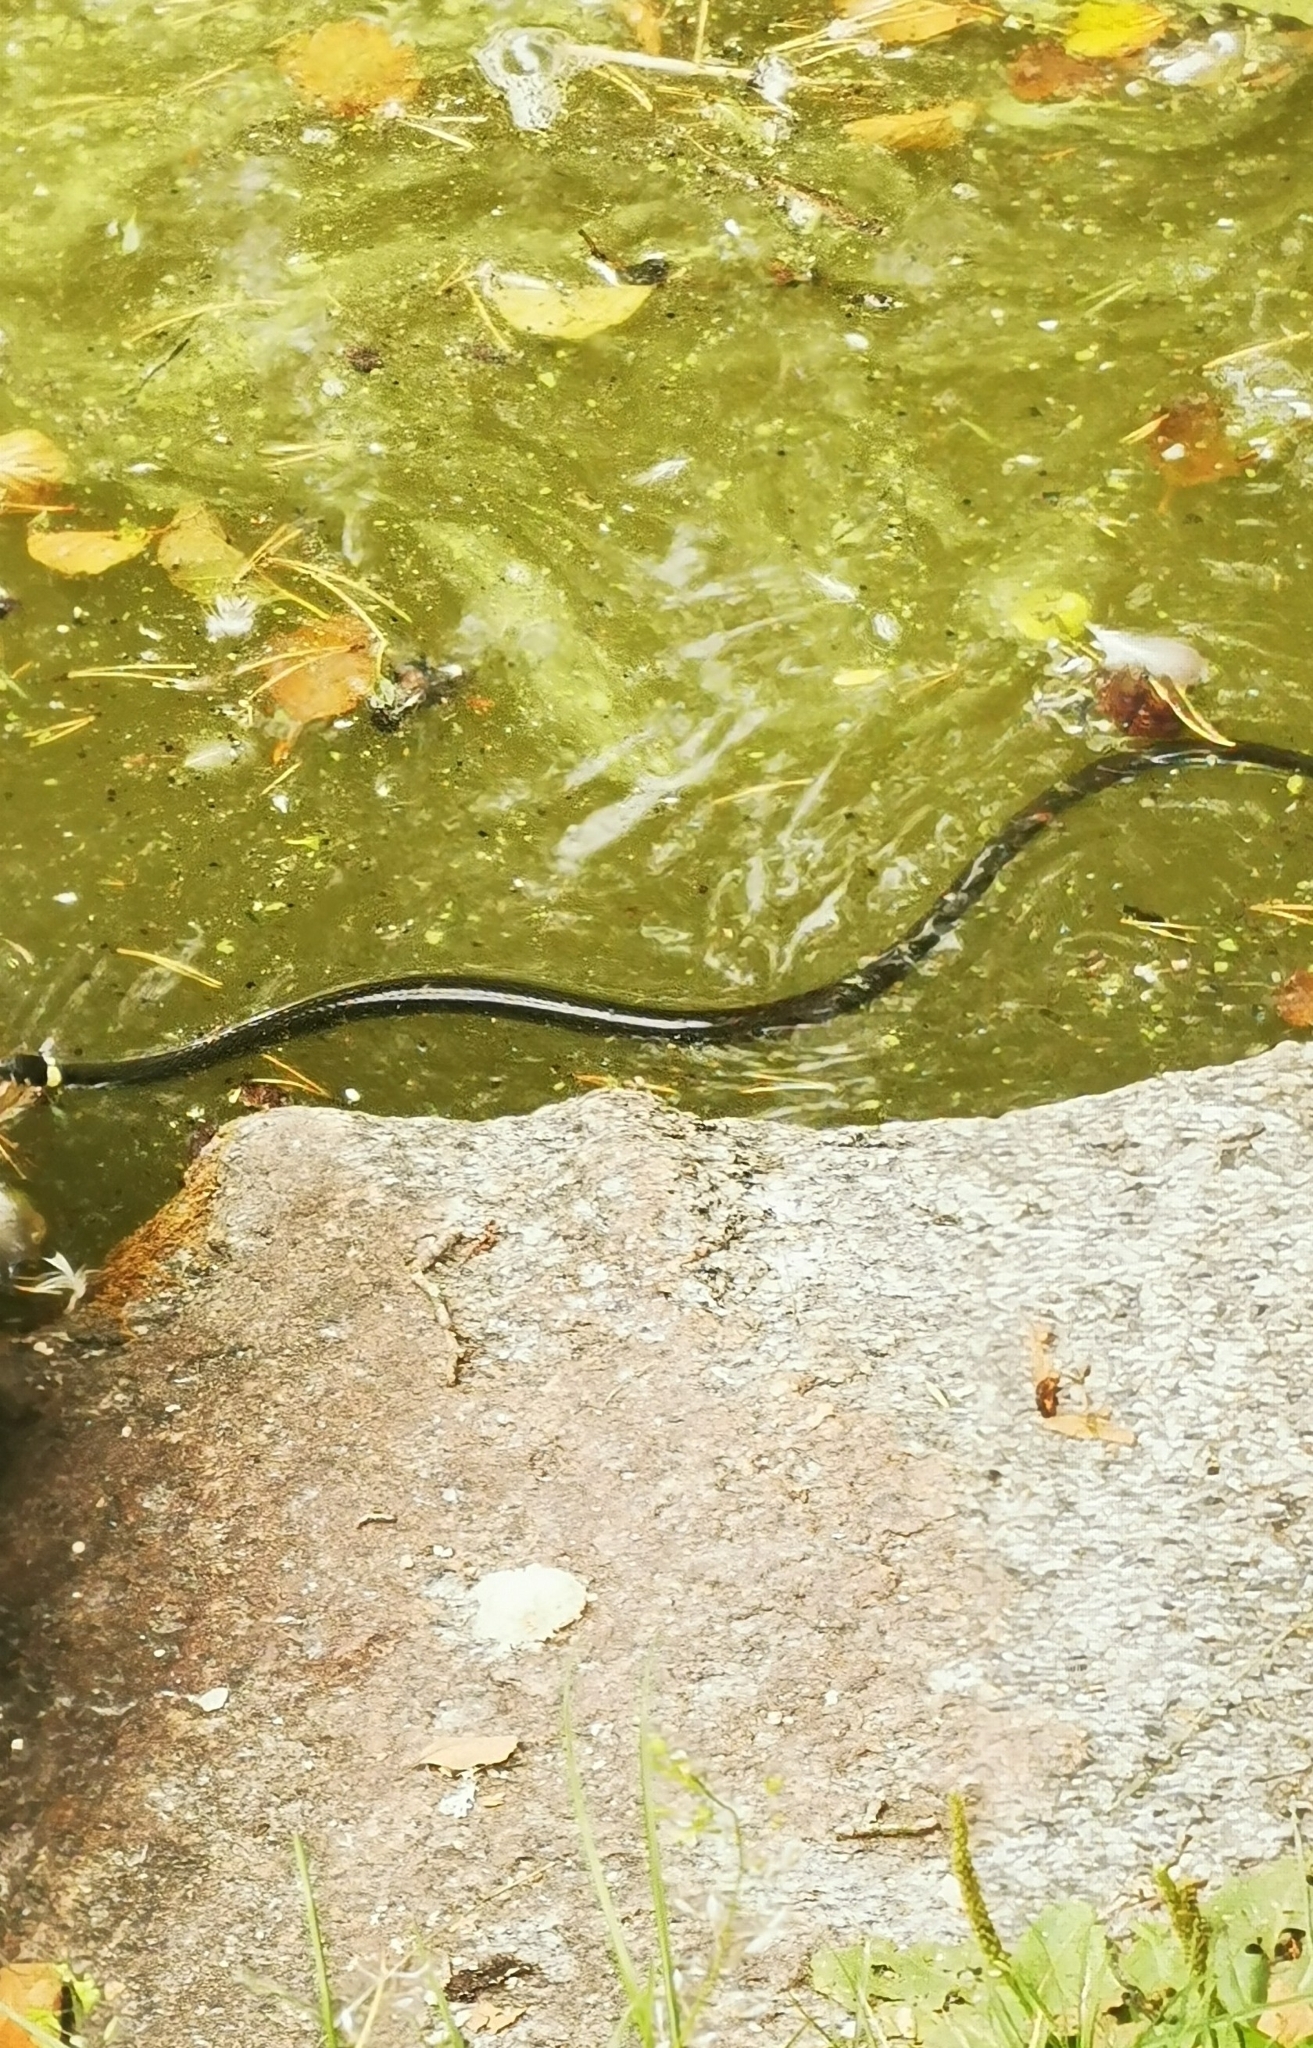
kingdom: Animalia
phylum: Chordata
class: Squamata
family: Colubridae
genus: Natrix
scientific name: Natrix natrix
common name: Grass snake
